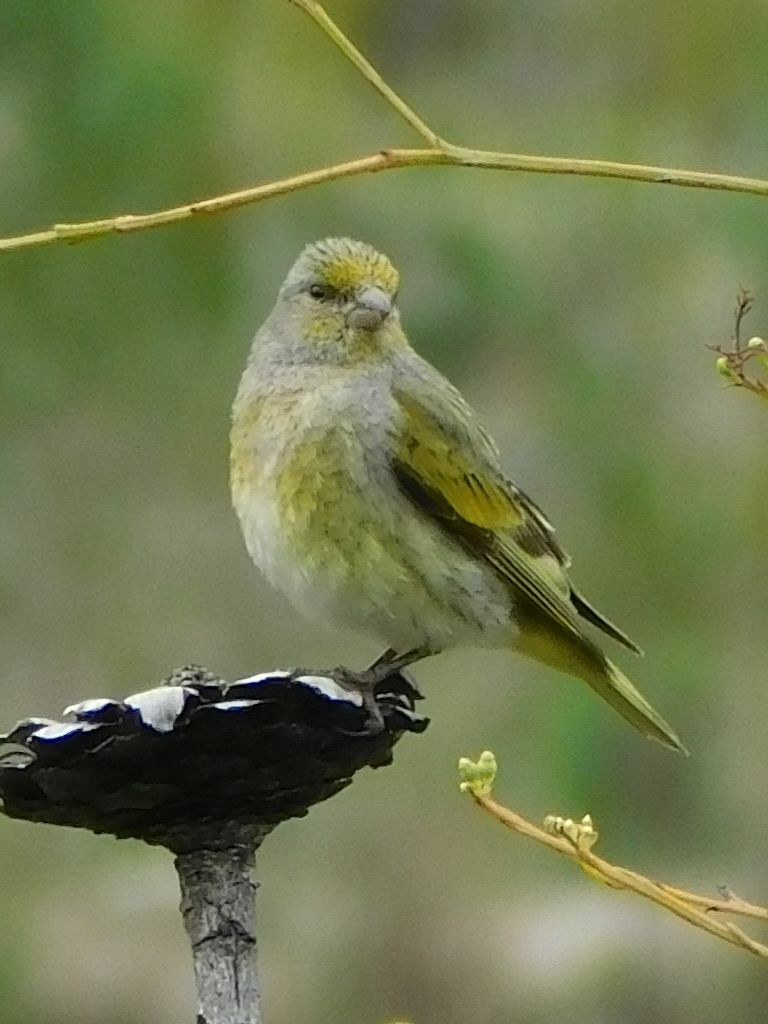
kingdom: Animalia
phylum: Chordata
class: Aves
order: Passeriformes
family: Fringillidae
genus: Serinus
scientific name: Serinus canicollis
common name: Cape canary
